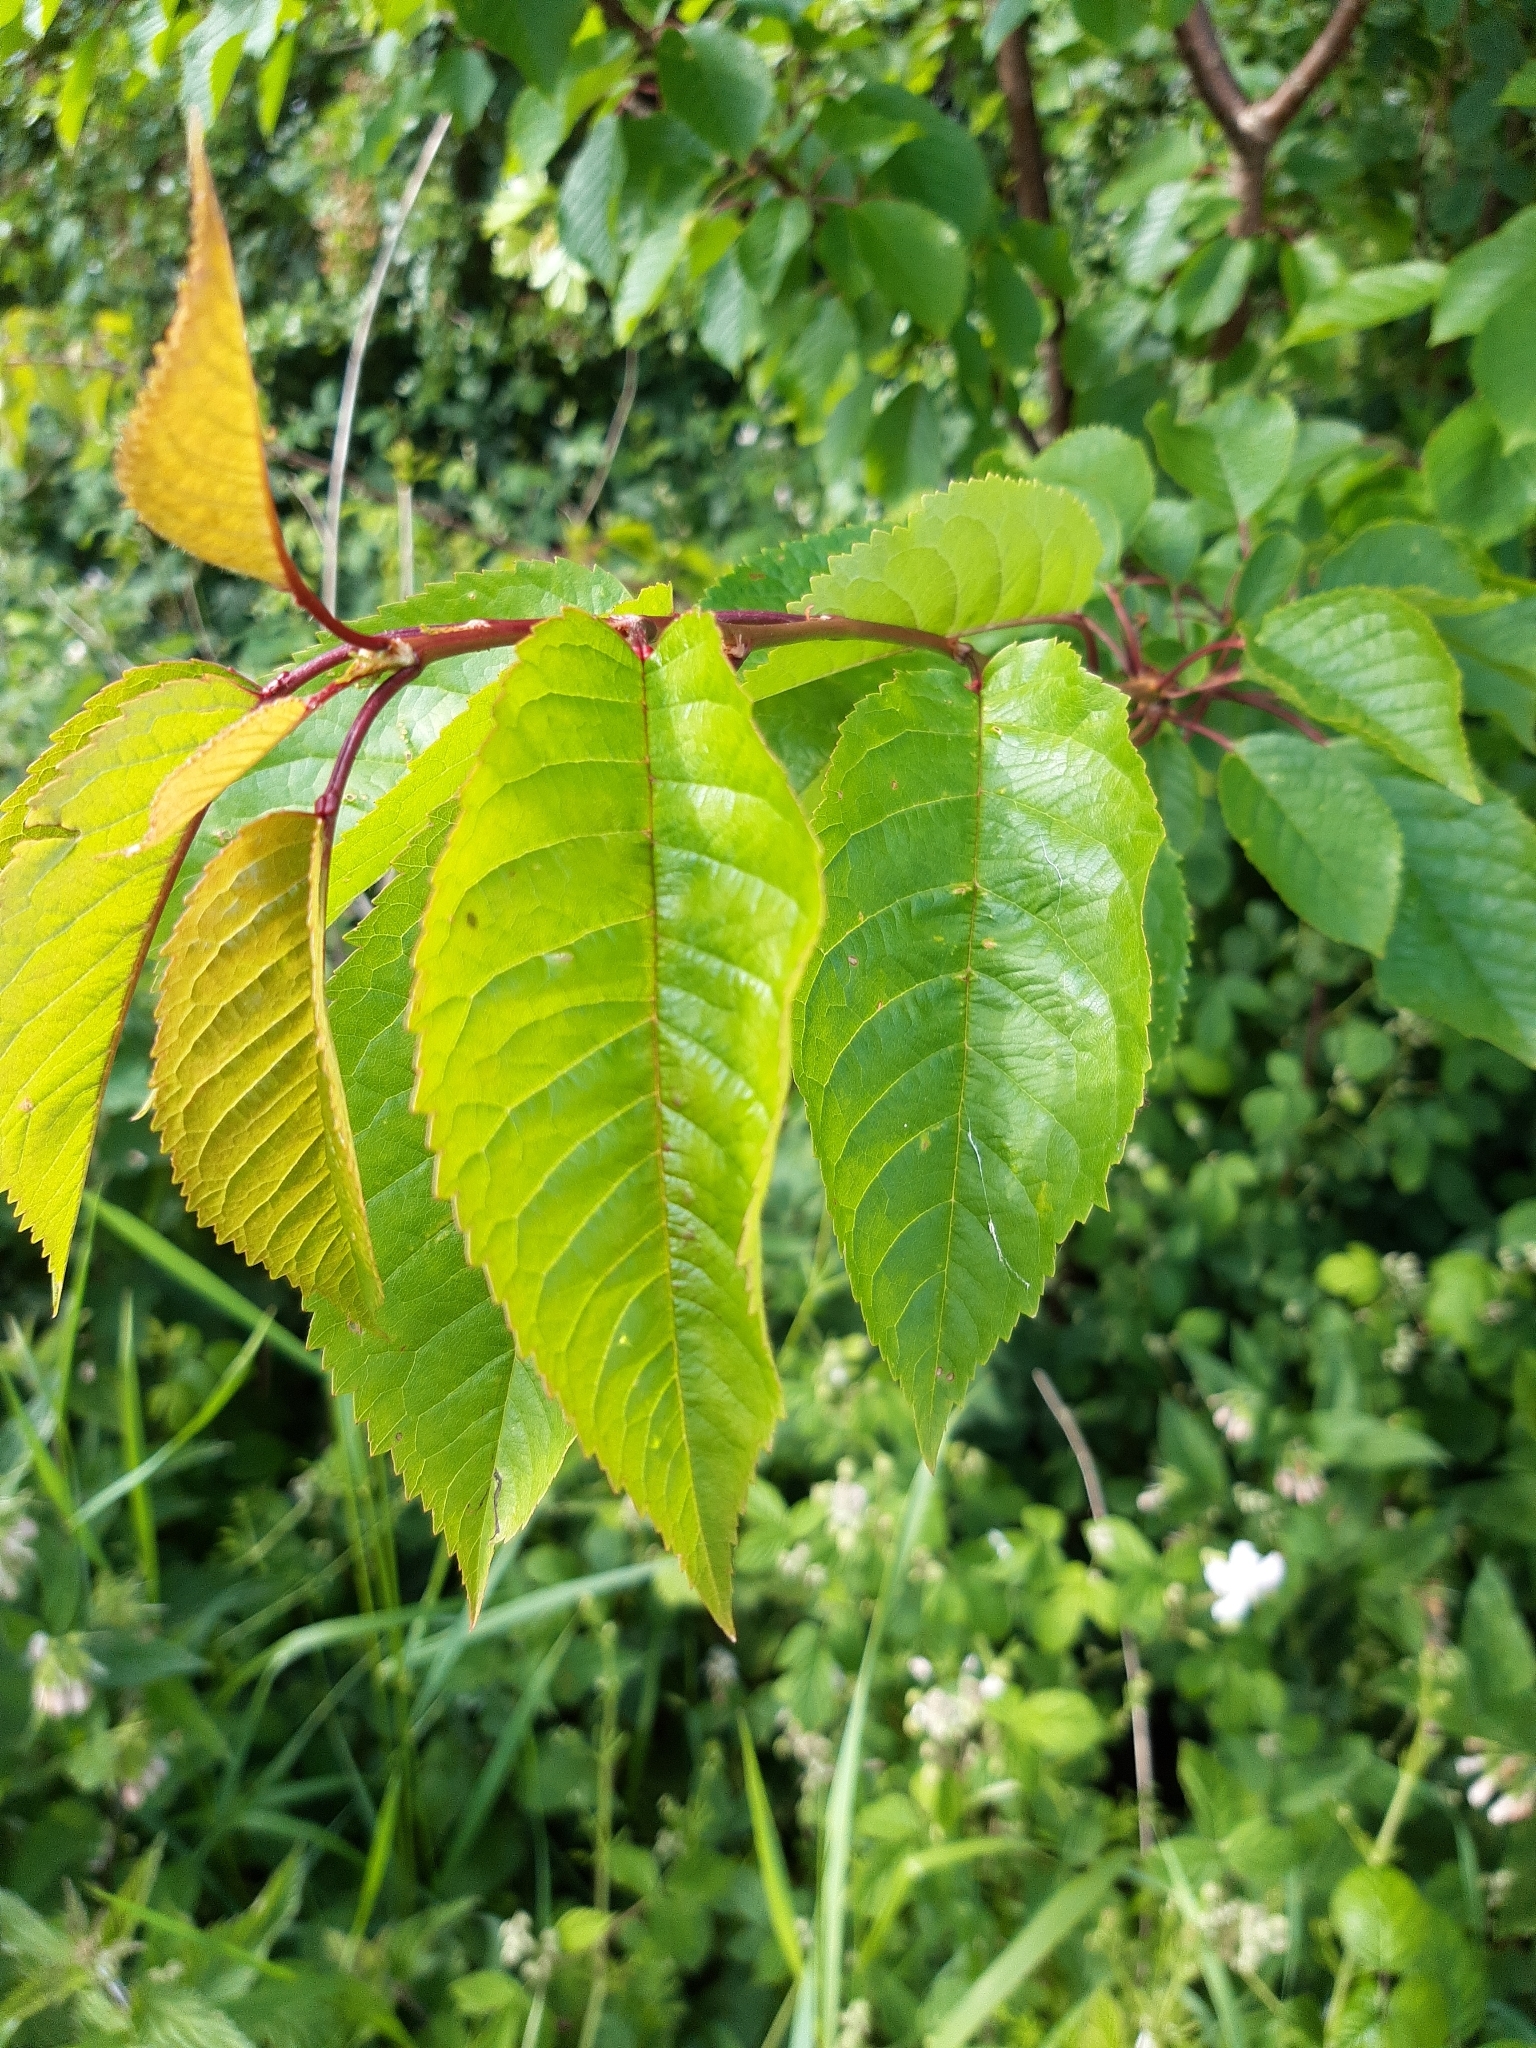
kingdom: Plantae
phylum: Tracheophyta
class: Magnoliopsida
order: Rosales
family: Rosaceae
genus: Prunus
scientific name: Prunus avium
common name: Sweet cherry
